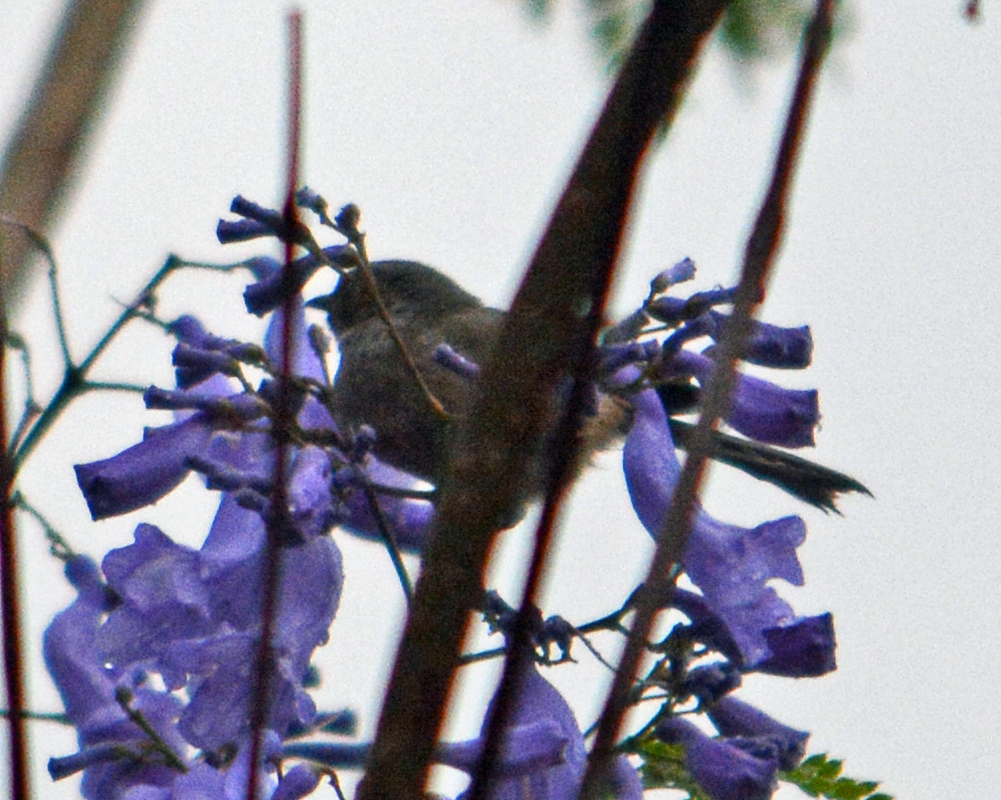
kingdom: Animalia
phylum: Chordata
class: Aves
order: Passeriformes
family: Aegithalidae
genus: Psaltriparus
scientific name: Psaltriparus minimus
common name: American bushtit
